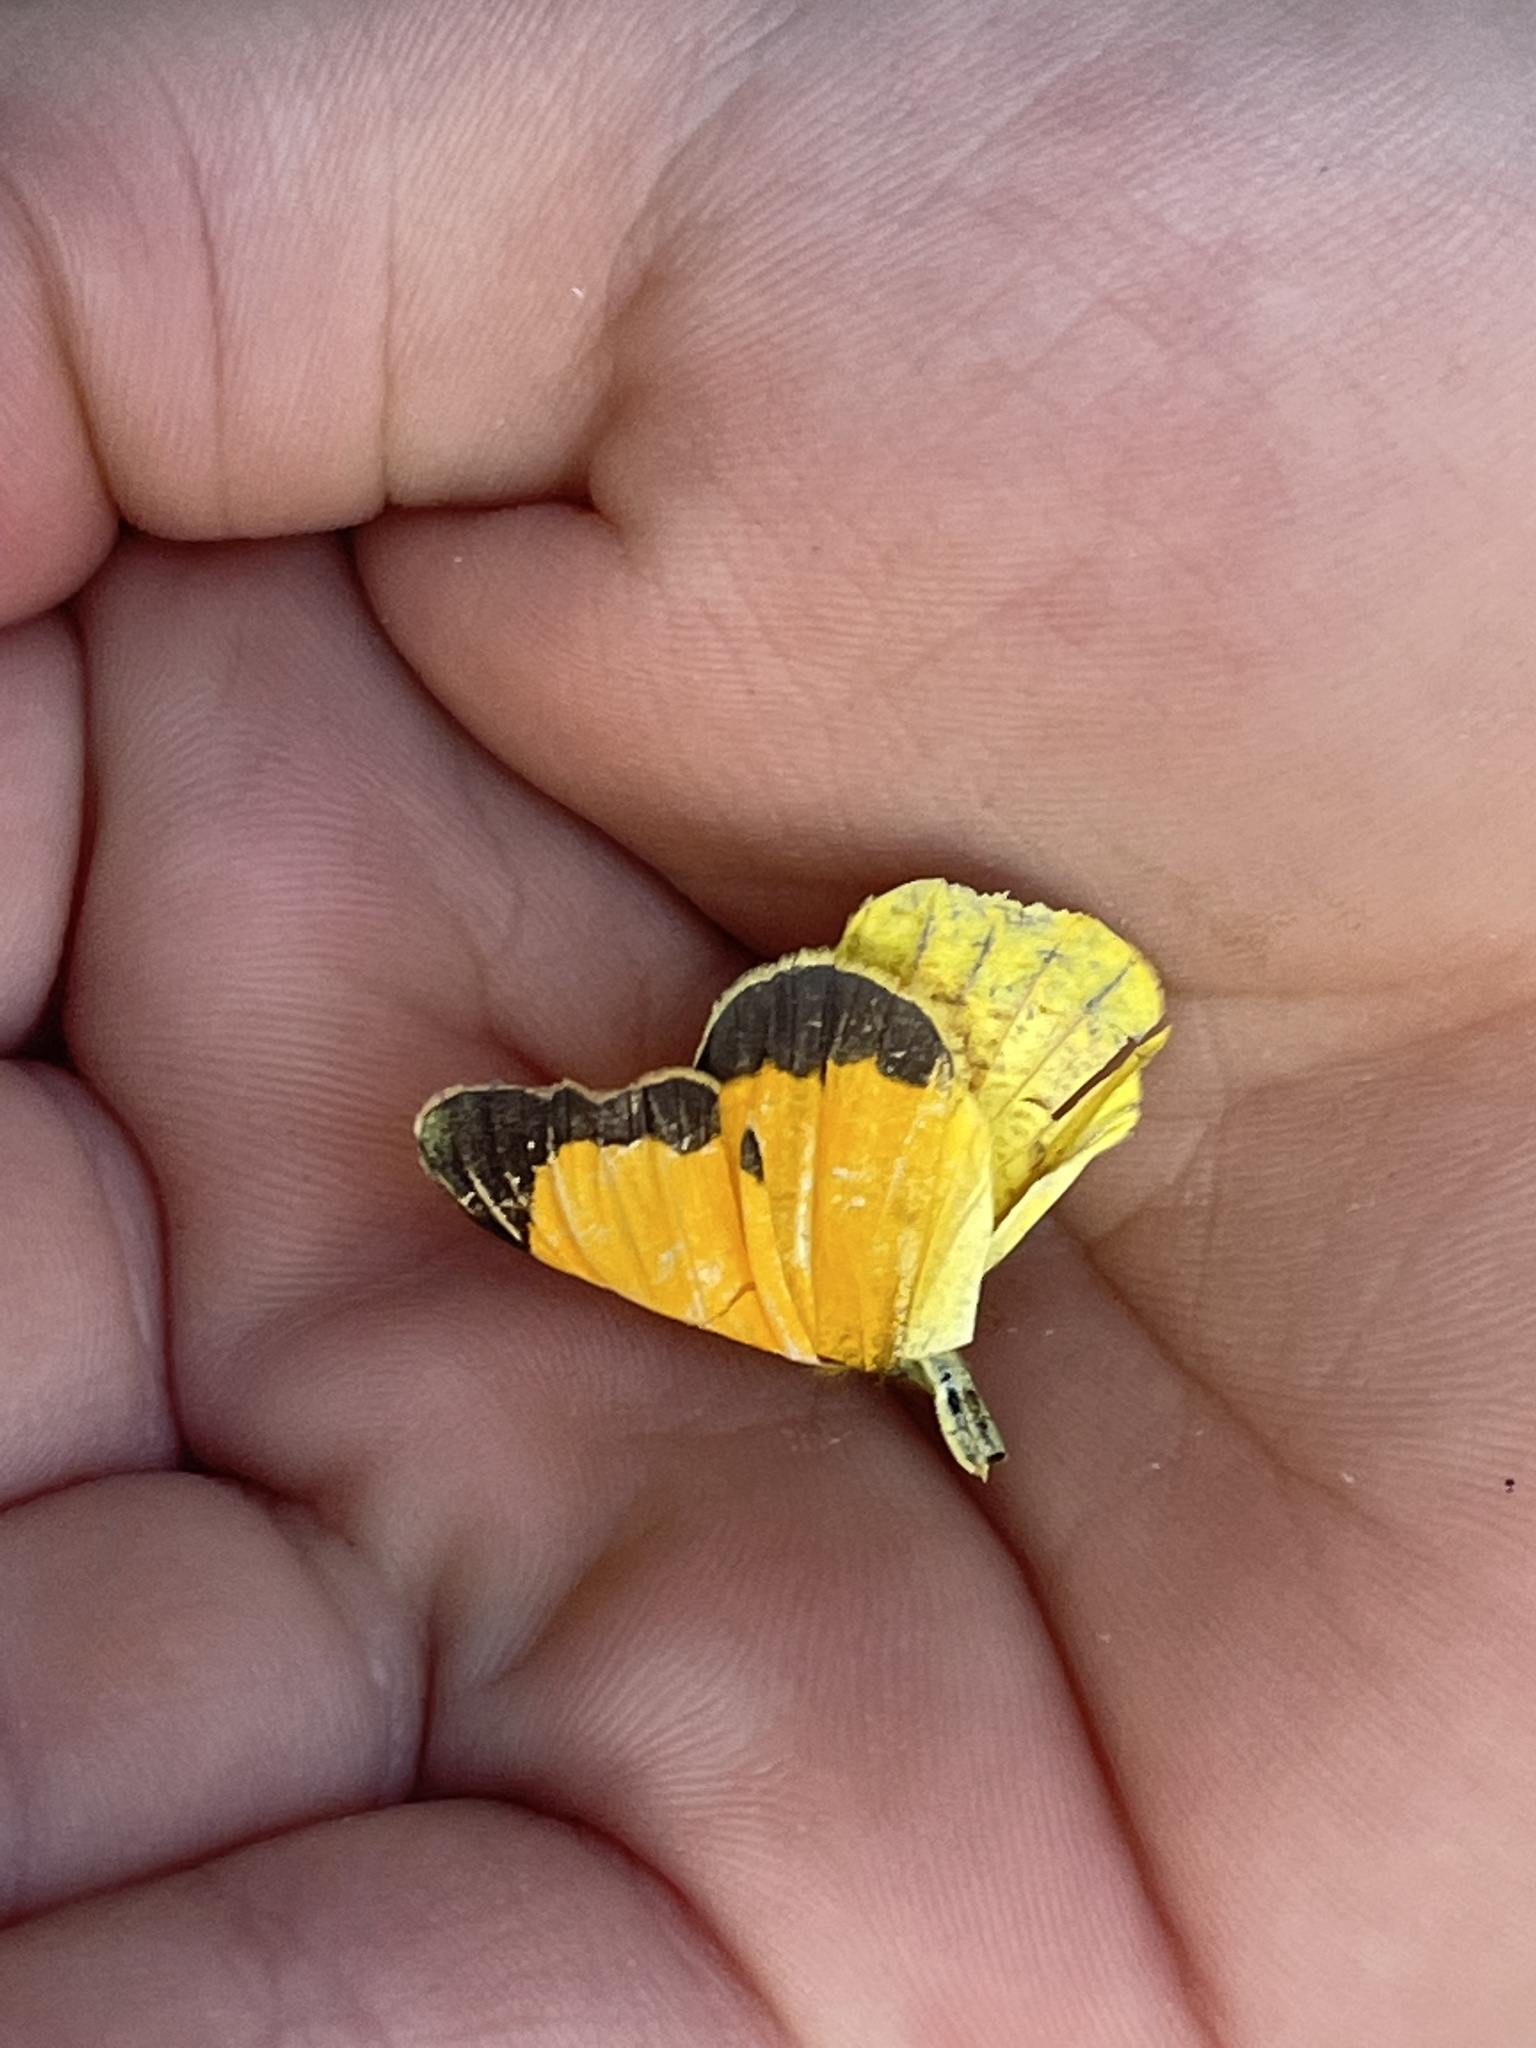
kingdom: Animalia
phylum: Arthropoda
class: Insecta
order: Lepidoptera
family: Pieridae
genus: Abaeis
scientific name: Abaeis nicippe
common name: Sleepy orange
